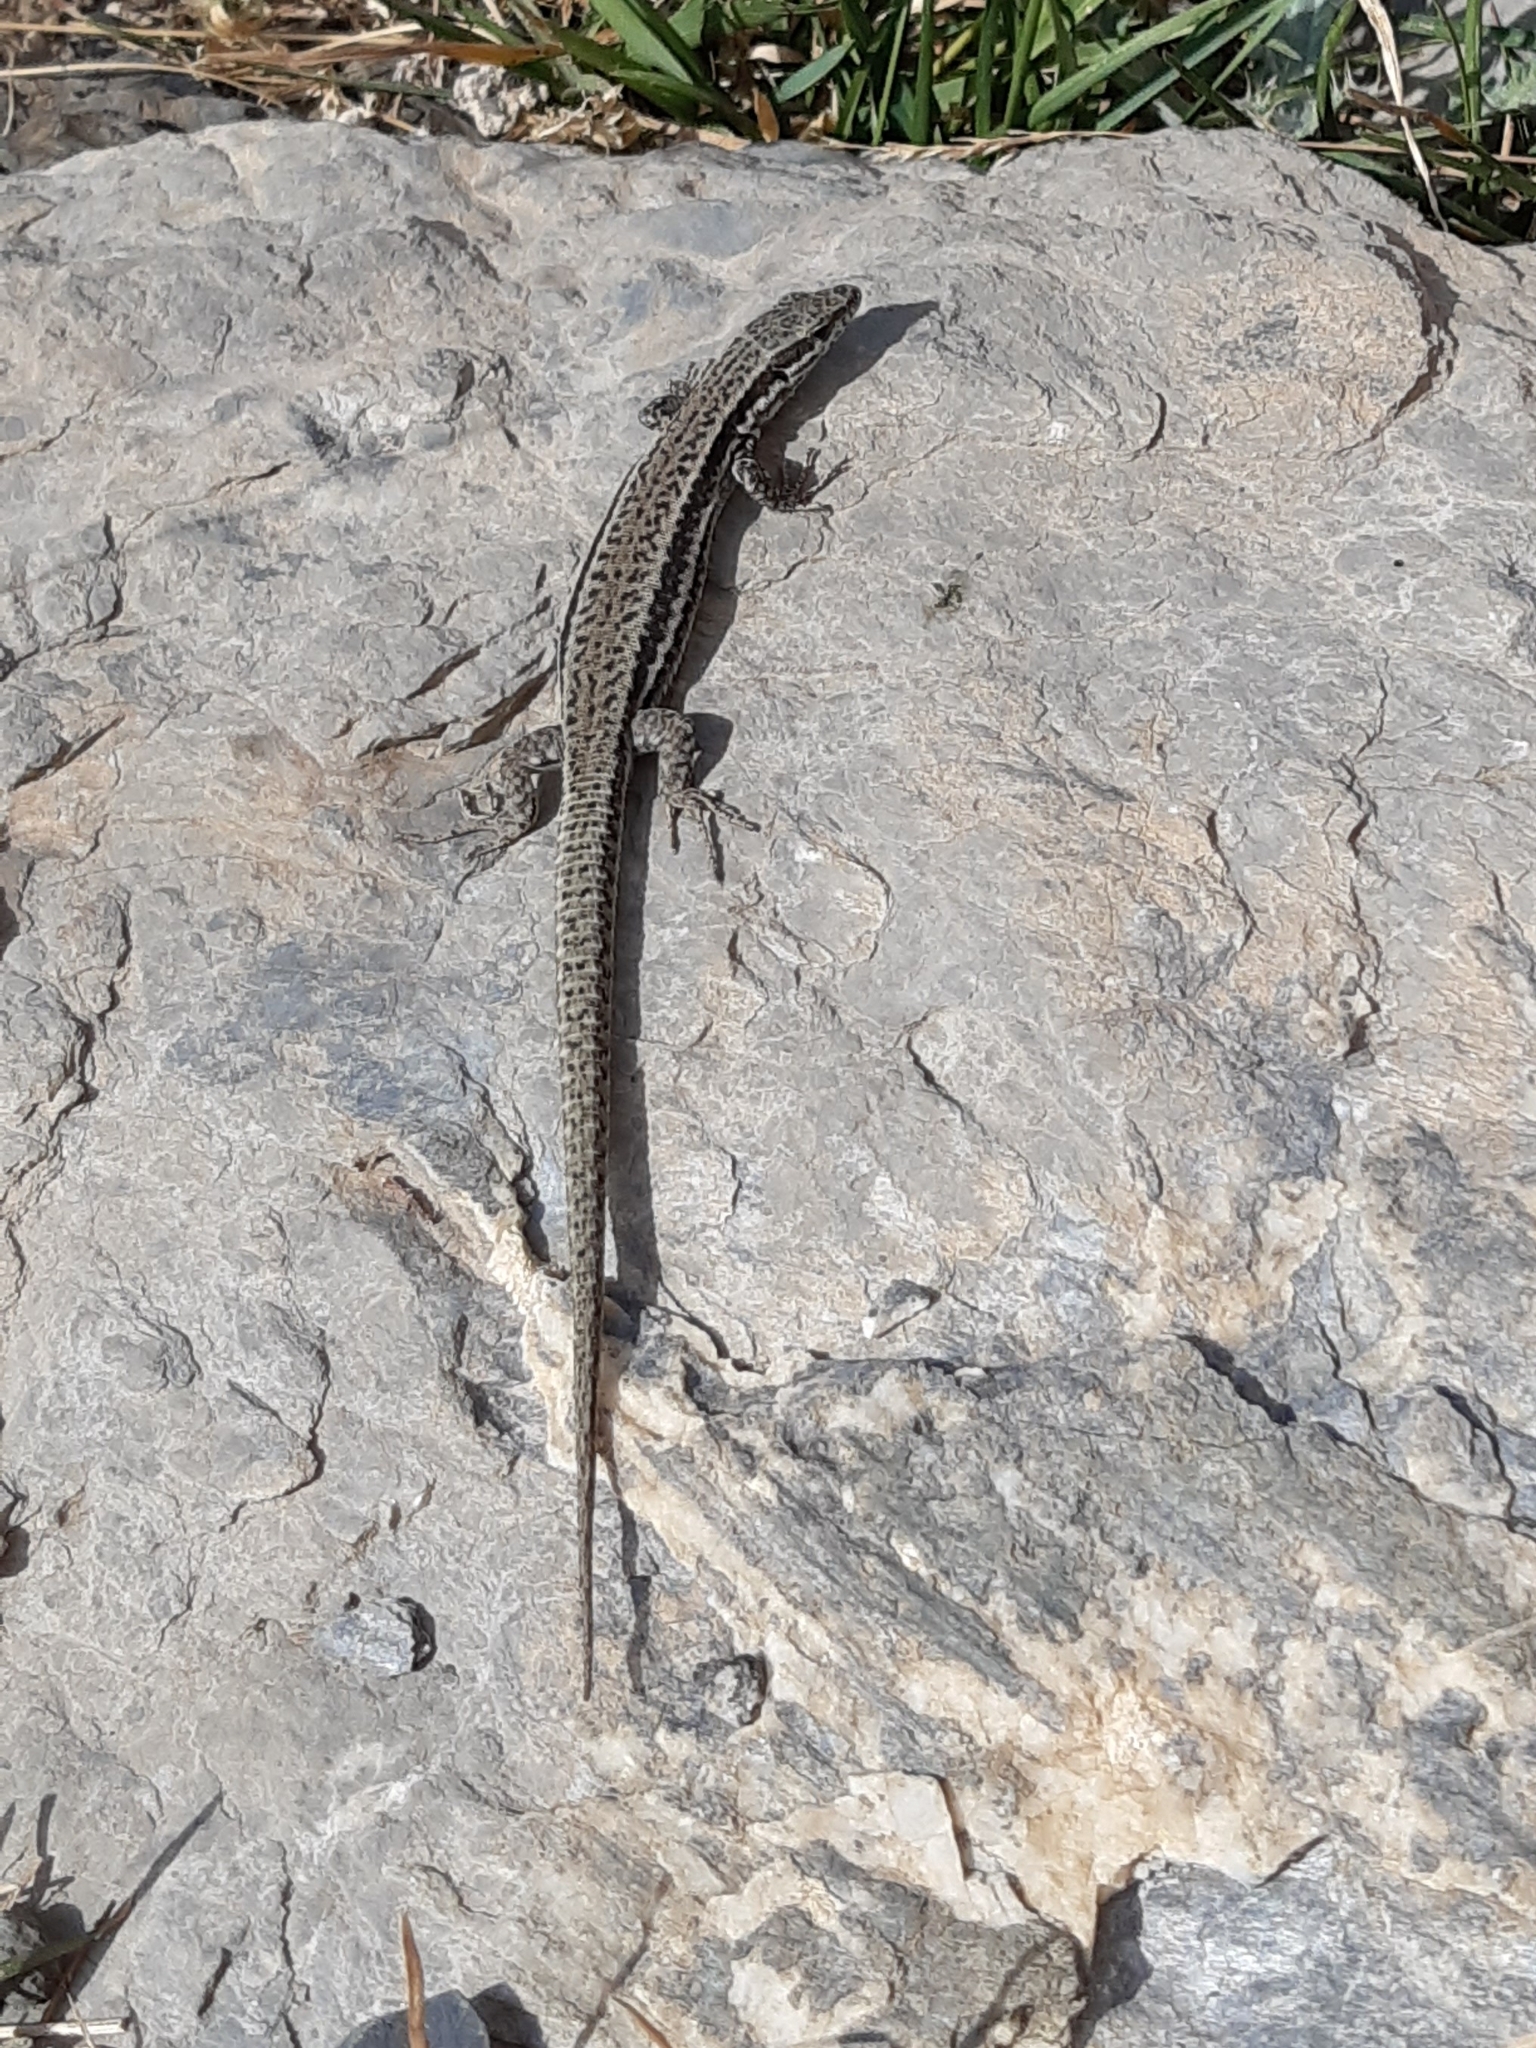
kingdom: Animalia
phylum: Chordata
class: Squamata
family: Lacertidae
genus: Podarcis
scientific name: Podarcis muralis
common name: Common wall lizard
